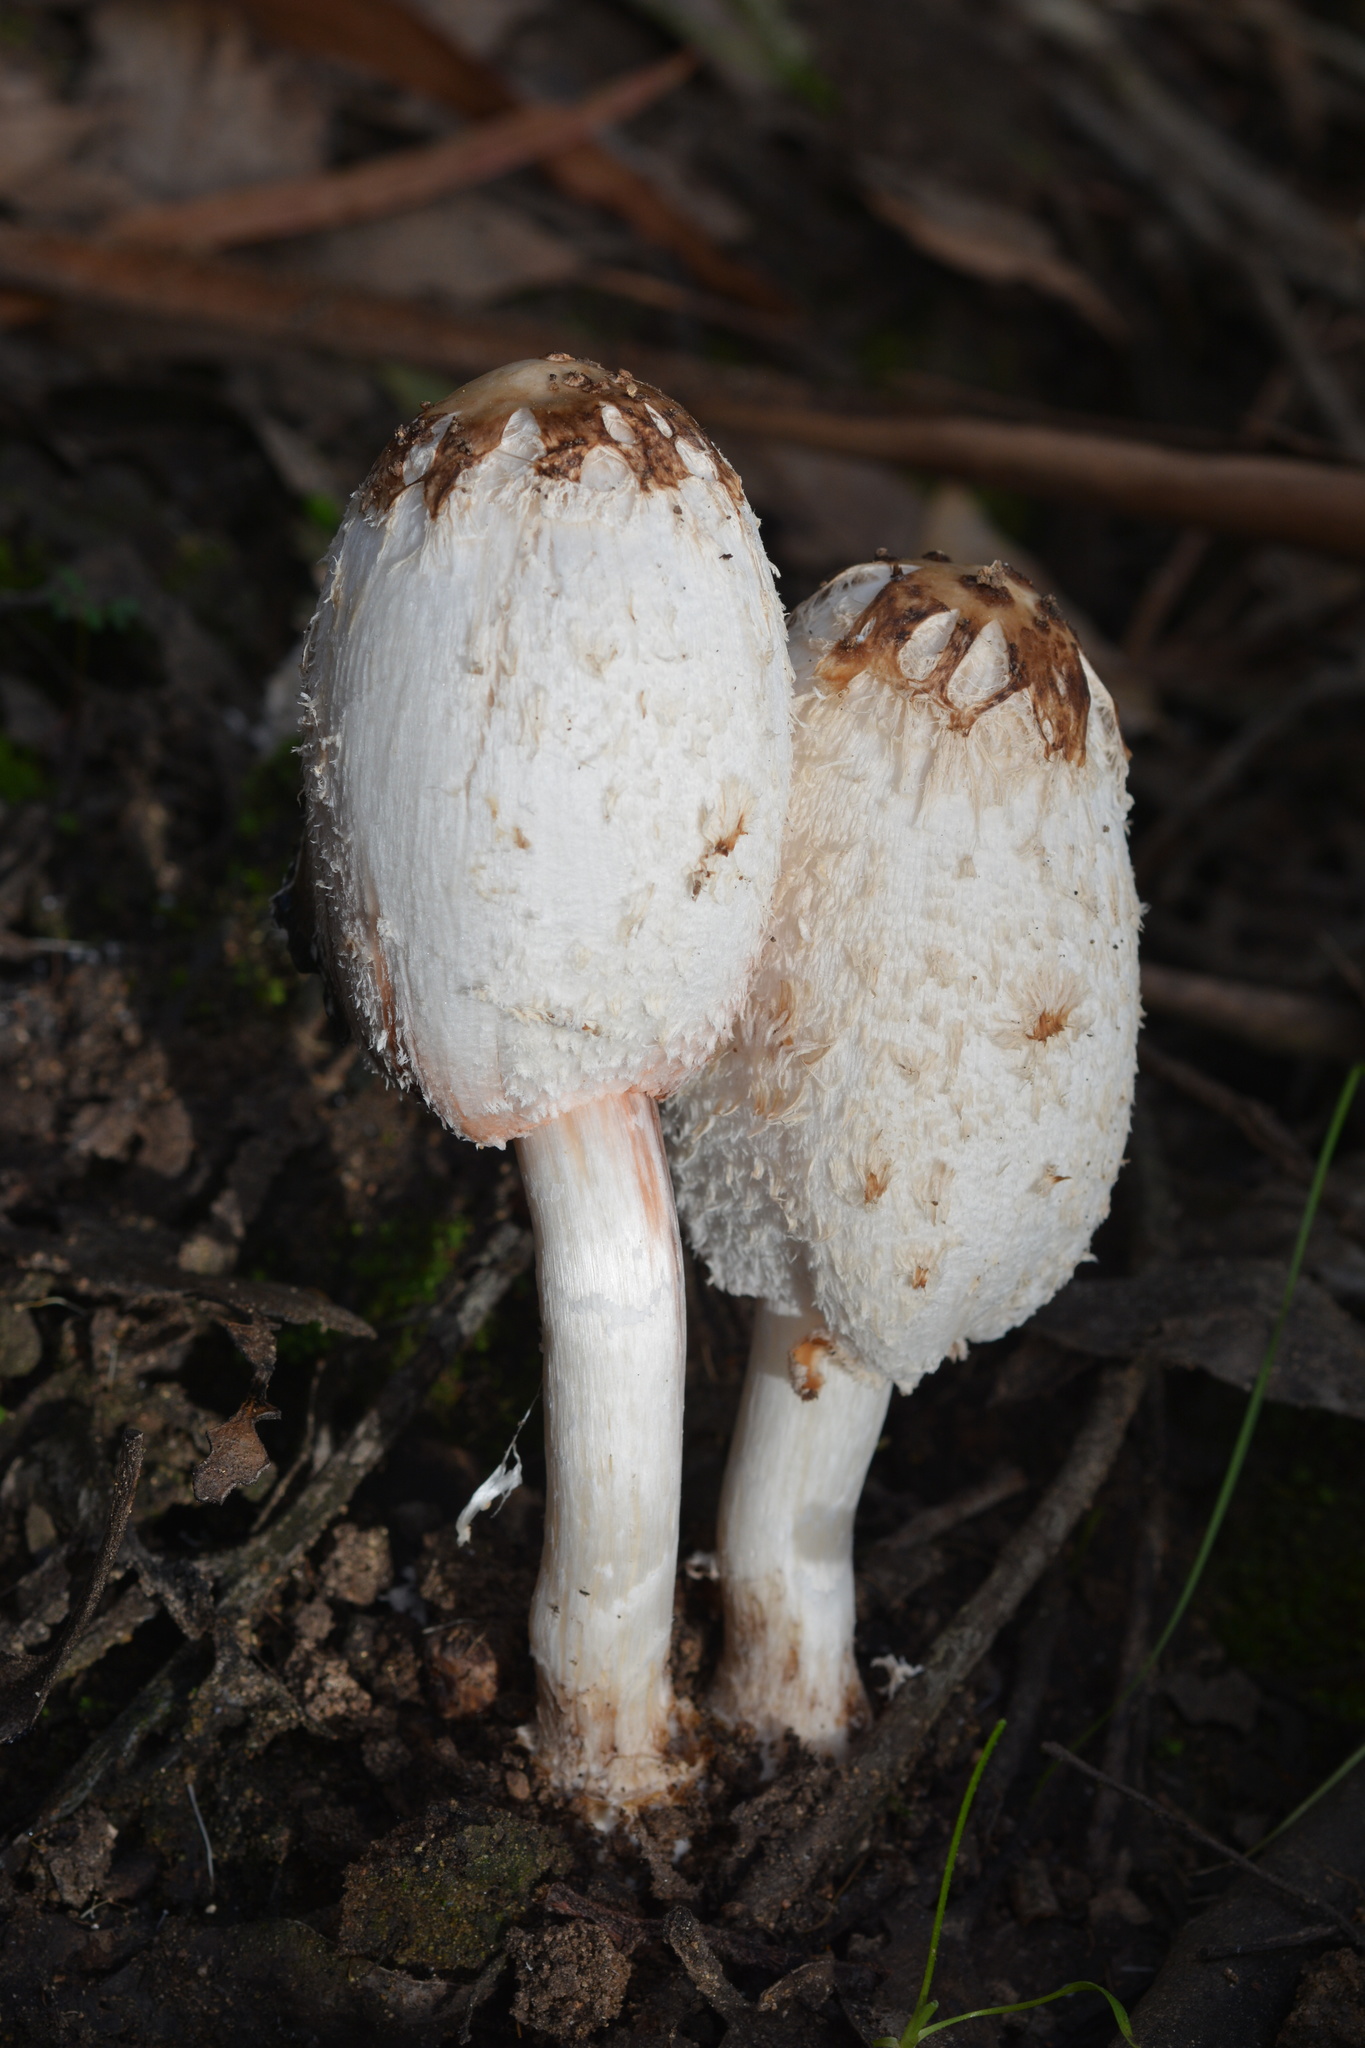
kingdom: Fungi
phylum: Basidiomycota
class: Agaricomycetes
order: Agaricales
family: Agaricaceae
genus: Coprinus
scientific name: Coprinus comatus
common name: Lawyer's wig
